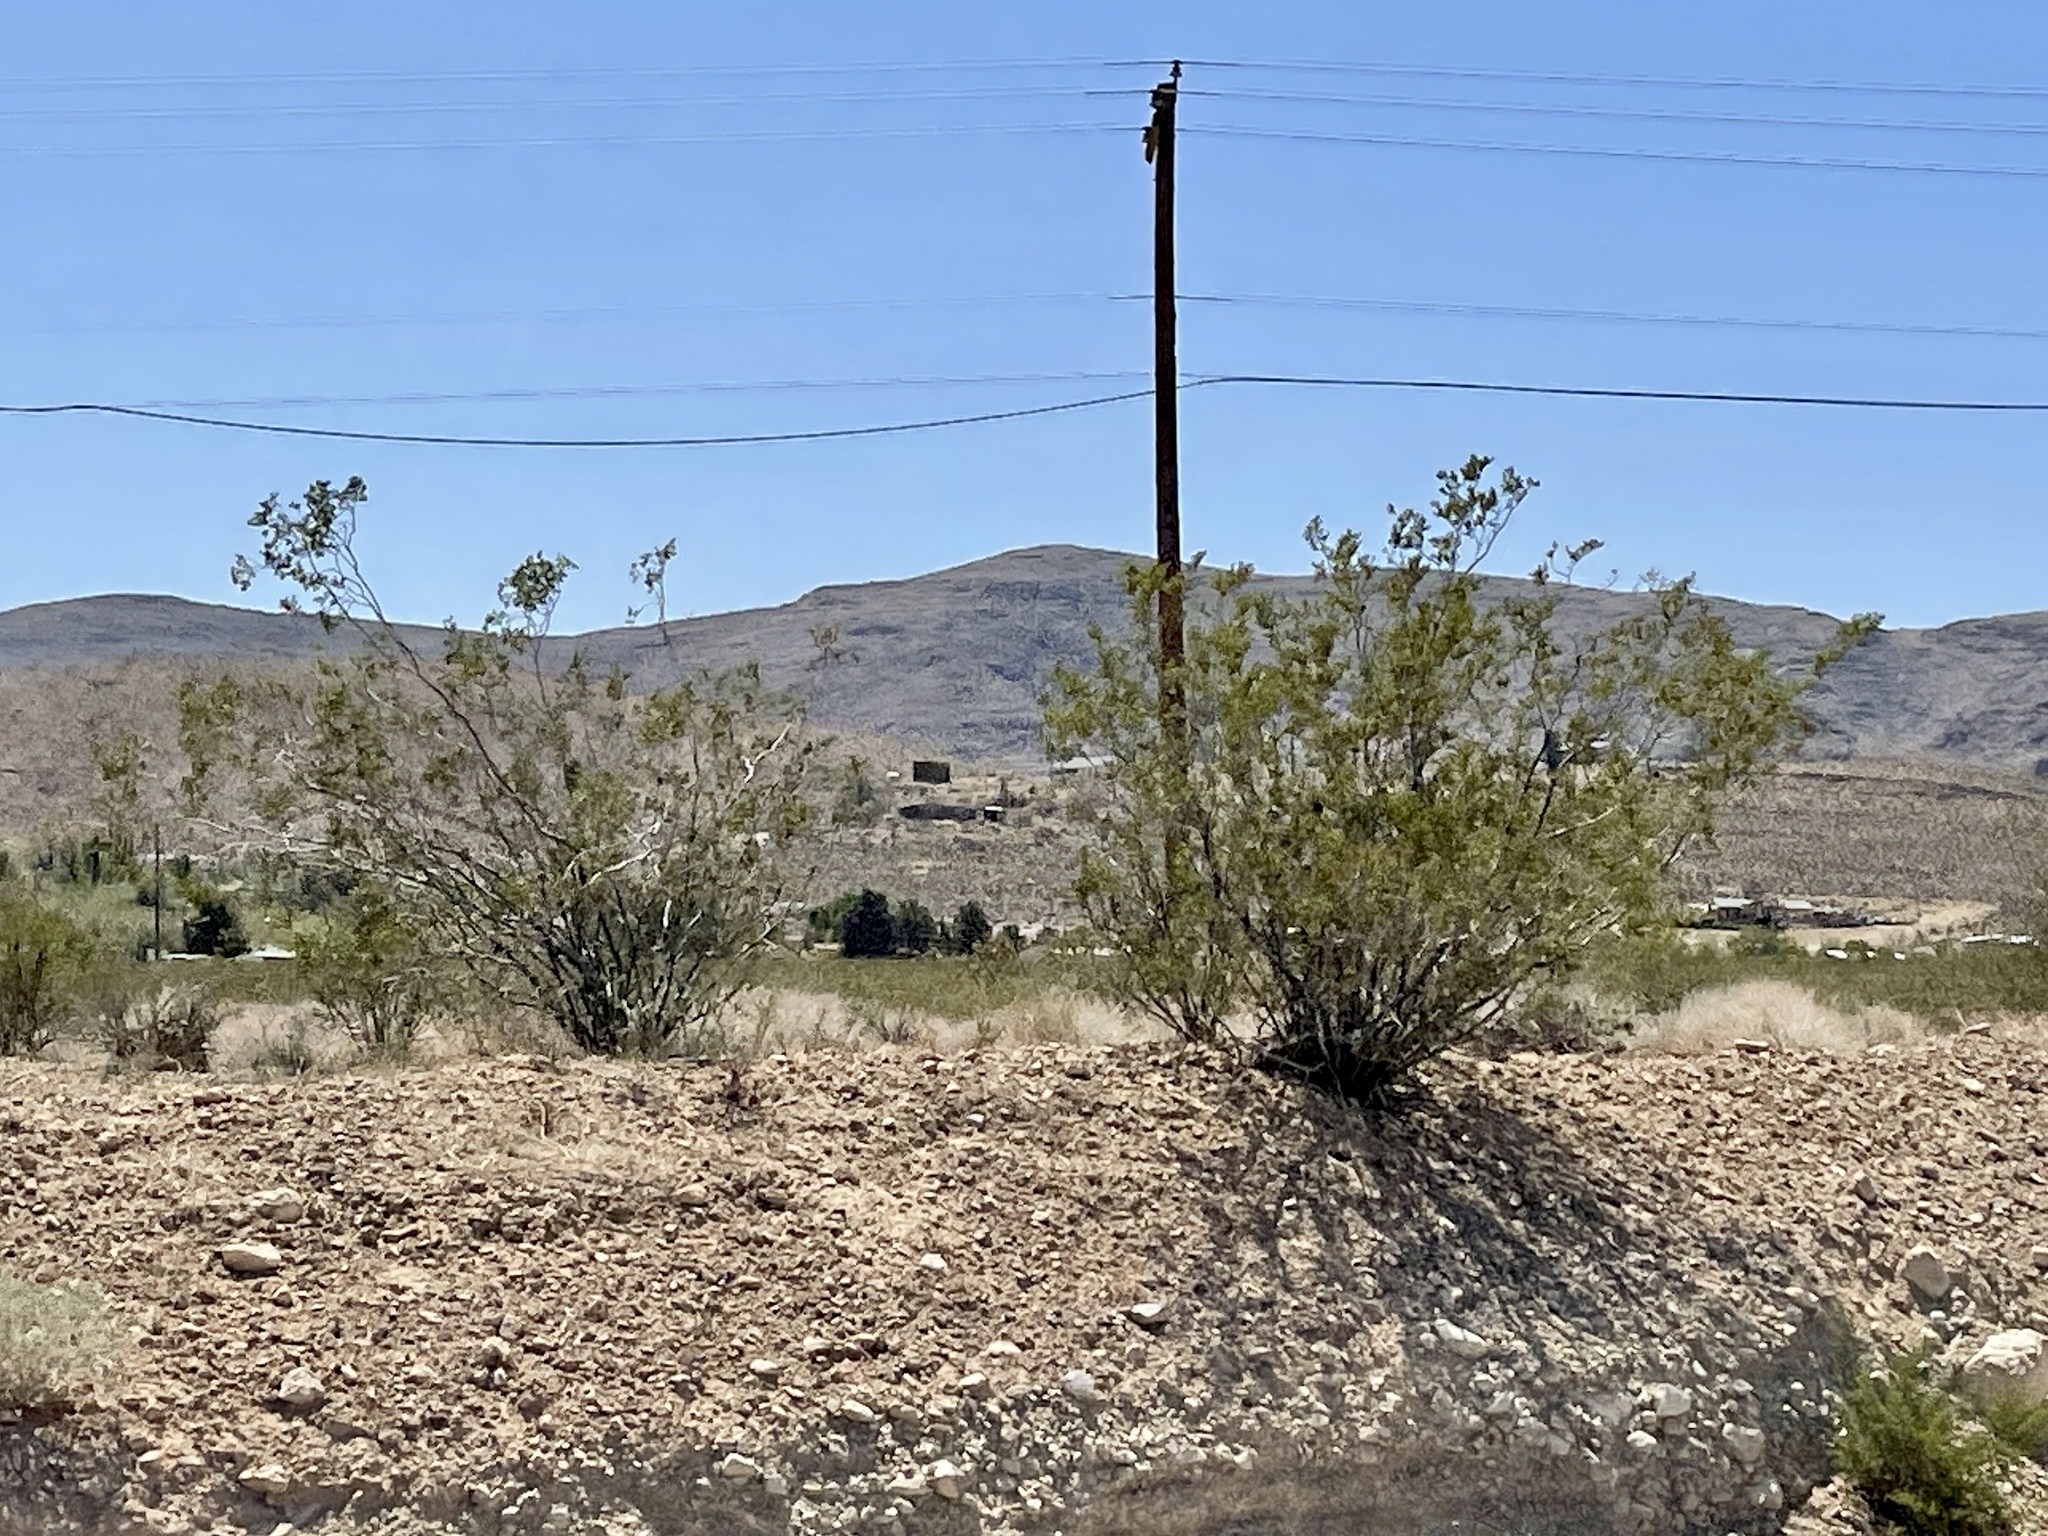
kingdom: Plantae
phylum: Tracheophyta
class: Magnoliopsida
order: Zygophyllales
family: Zygophyllaceae
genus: Larrea
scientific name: Larrea tridentata
